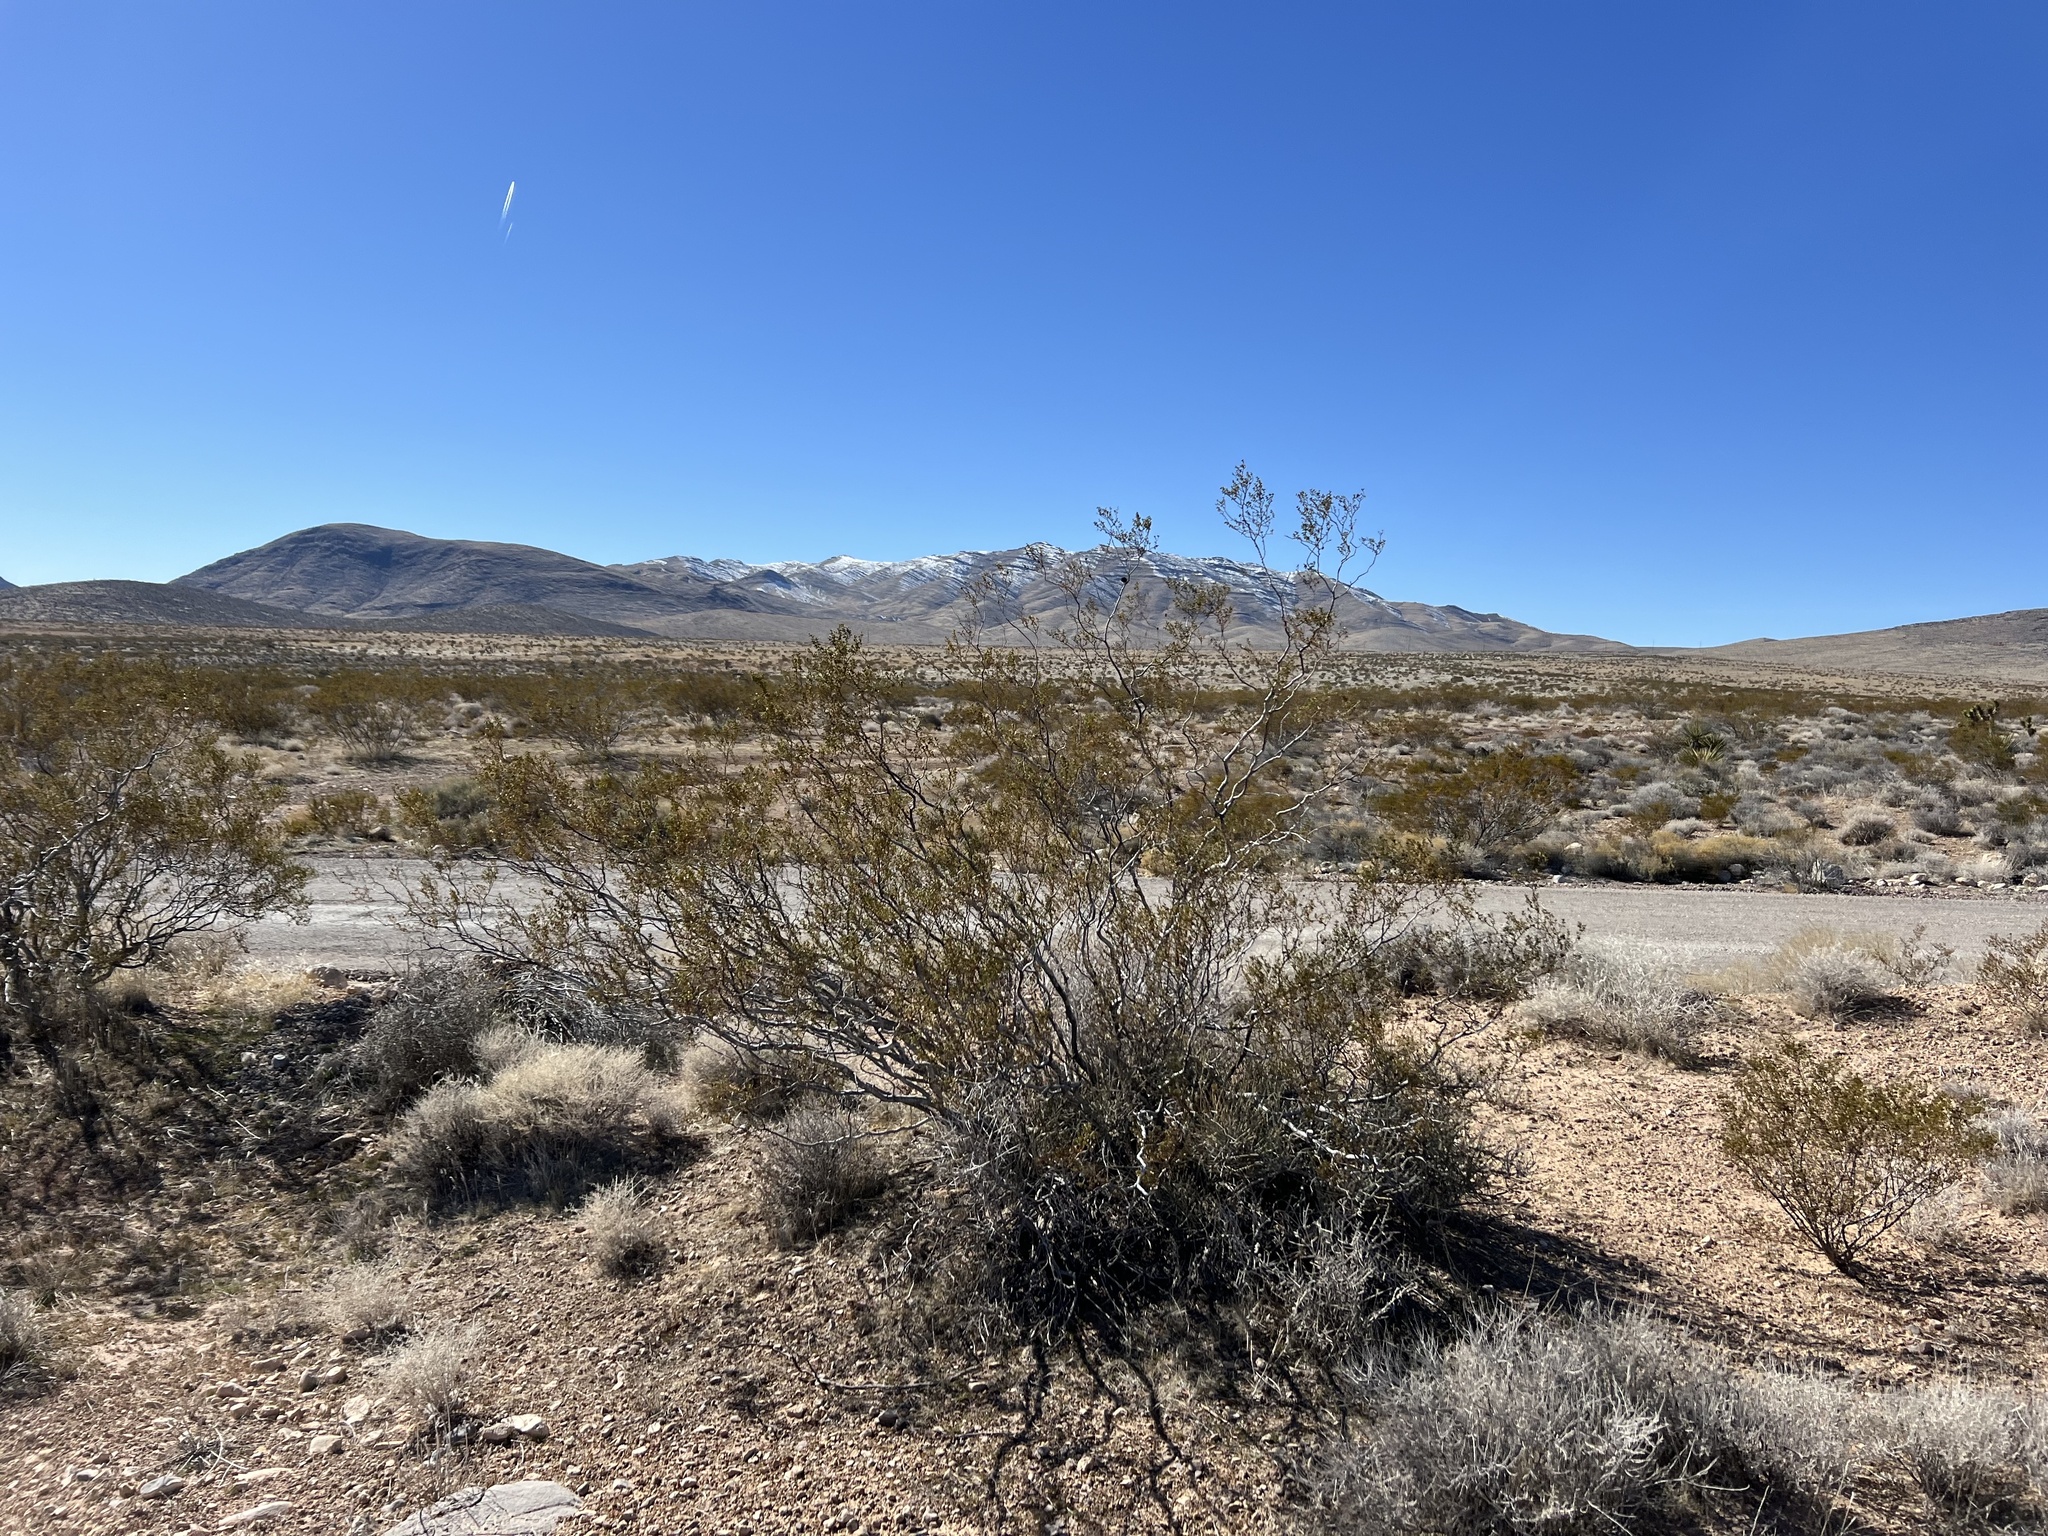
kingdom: Plantae
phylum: Tracheophyta
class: Magnoliopsida
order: Zygophyllales
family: Zygophyllaceae
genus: Larrea
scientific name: Larrea tridentata
